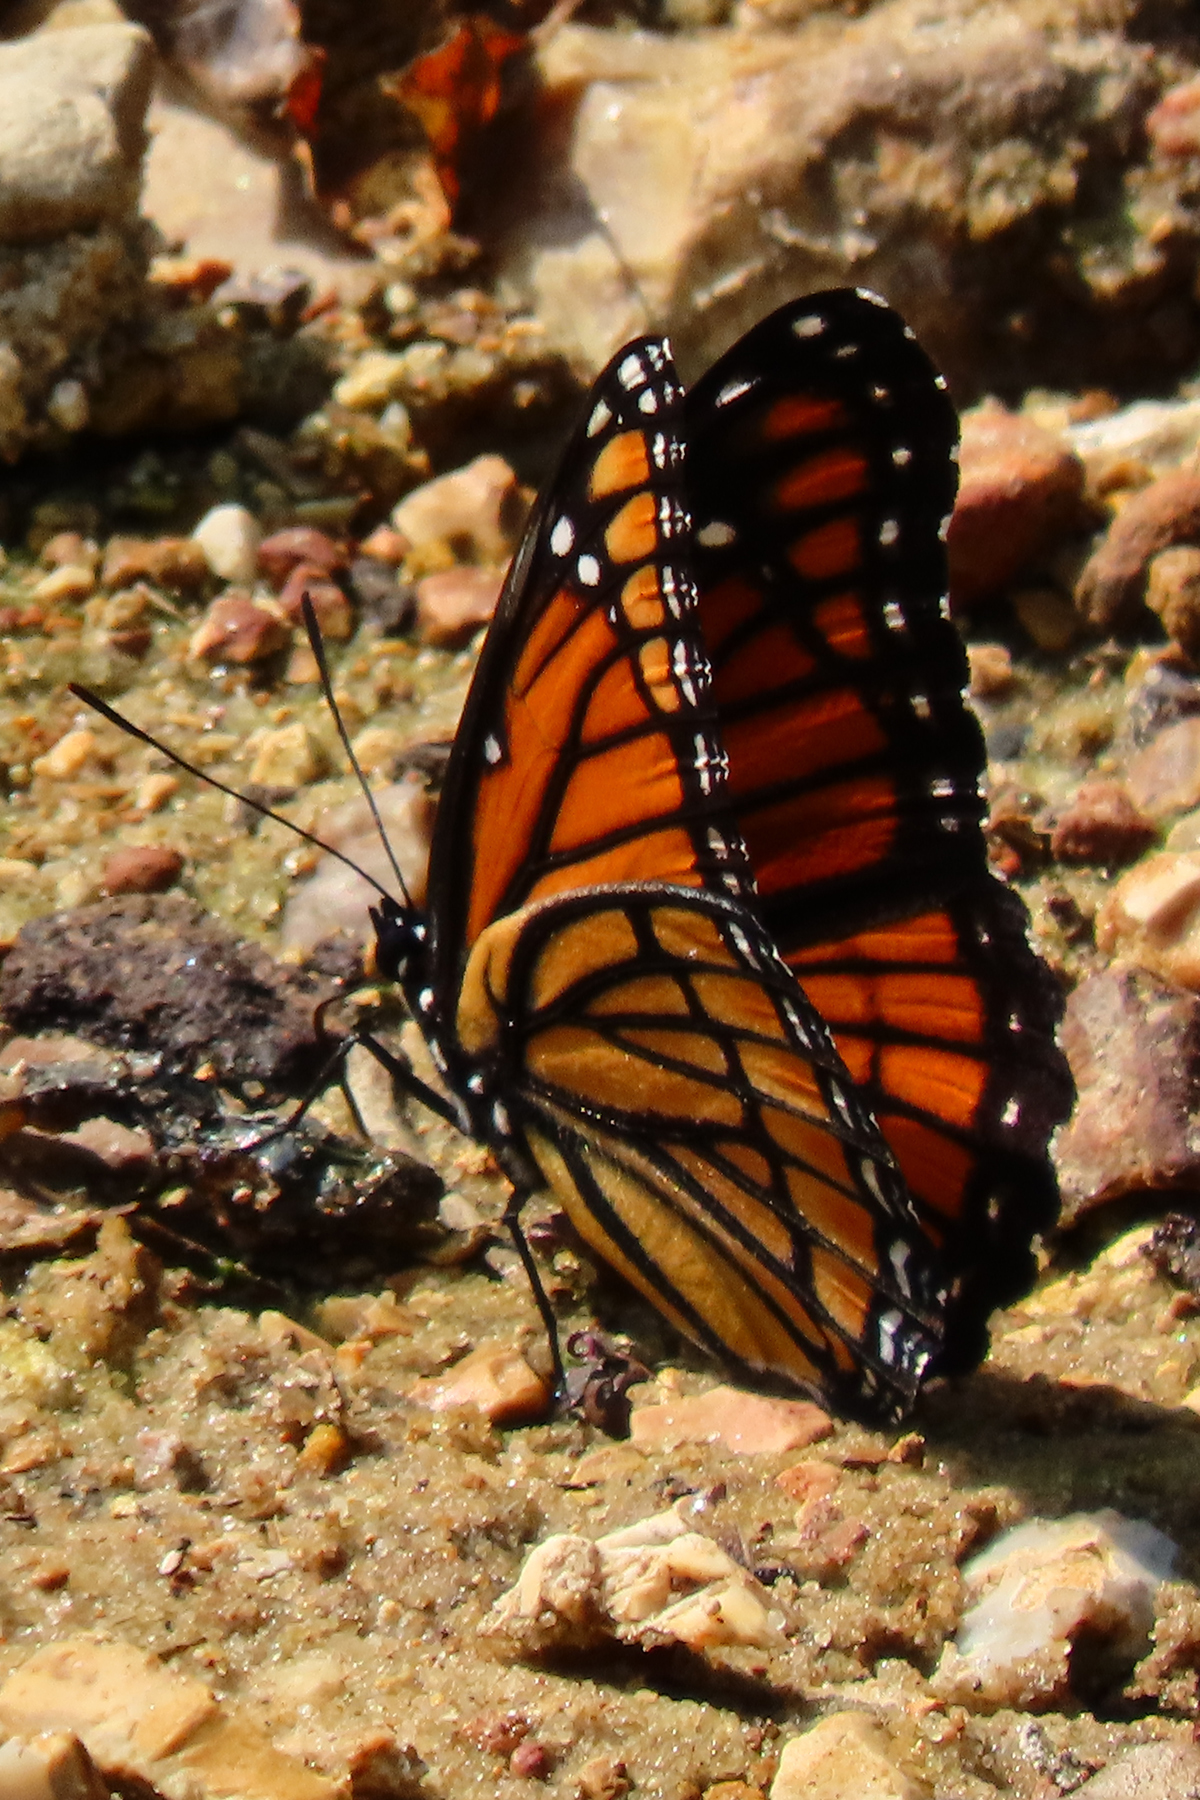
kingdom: Animalia
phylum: Arthropoda
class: Insecta
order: Lepidoptera
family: Nymphalidae
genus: Limenitis
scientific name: Limenitis archippus
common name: Viceroy
